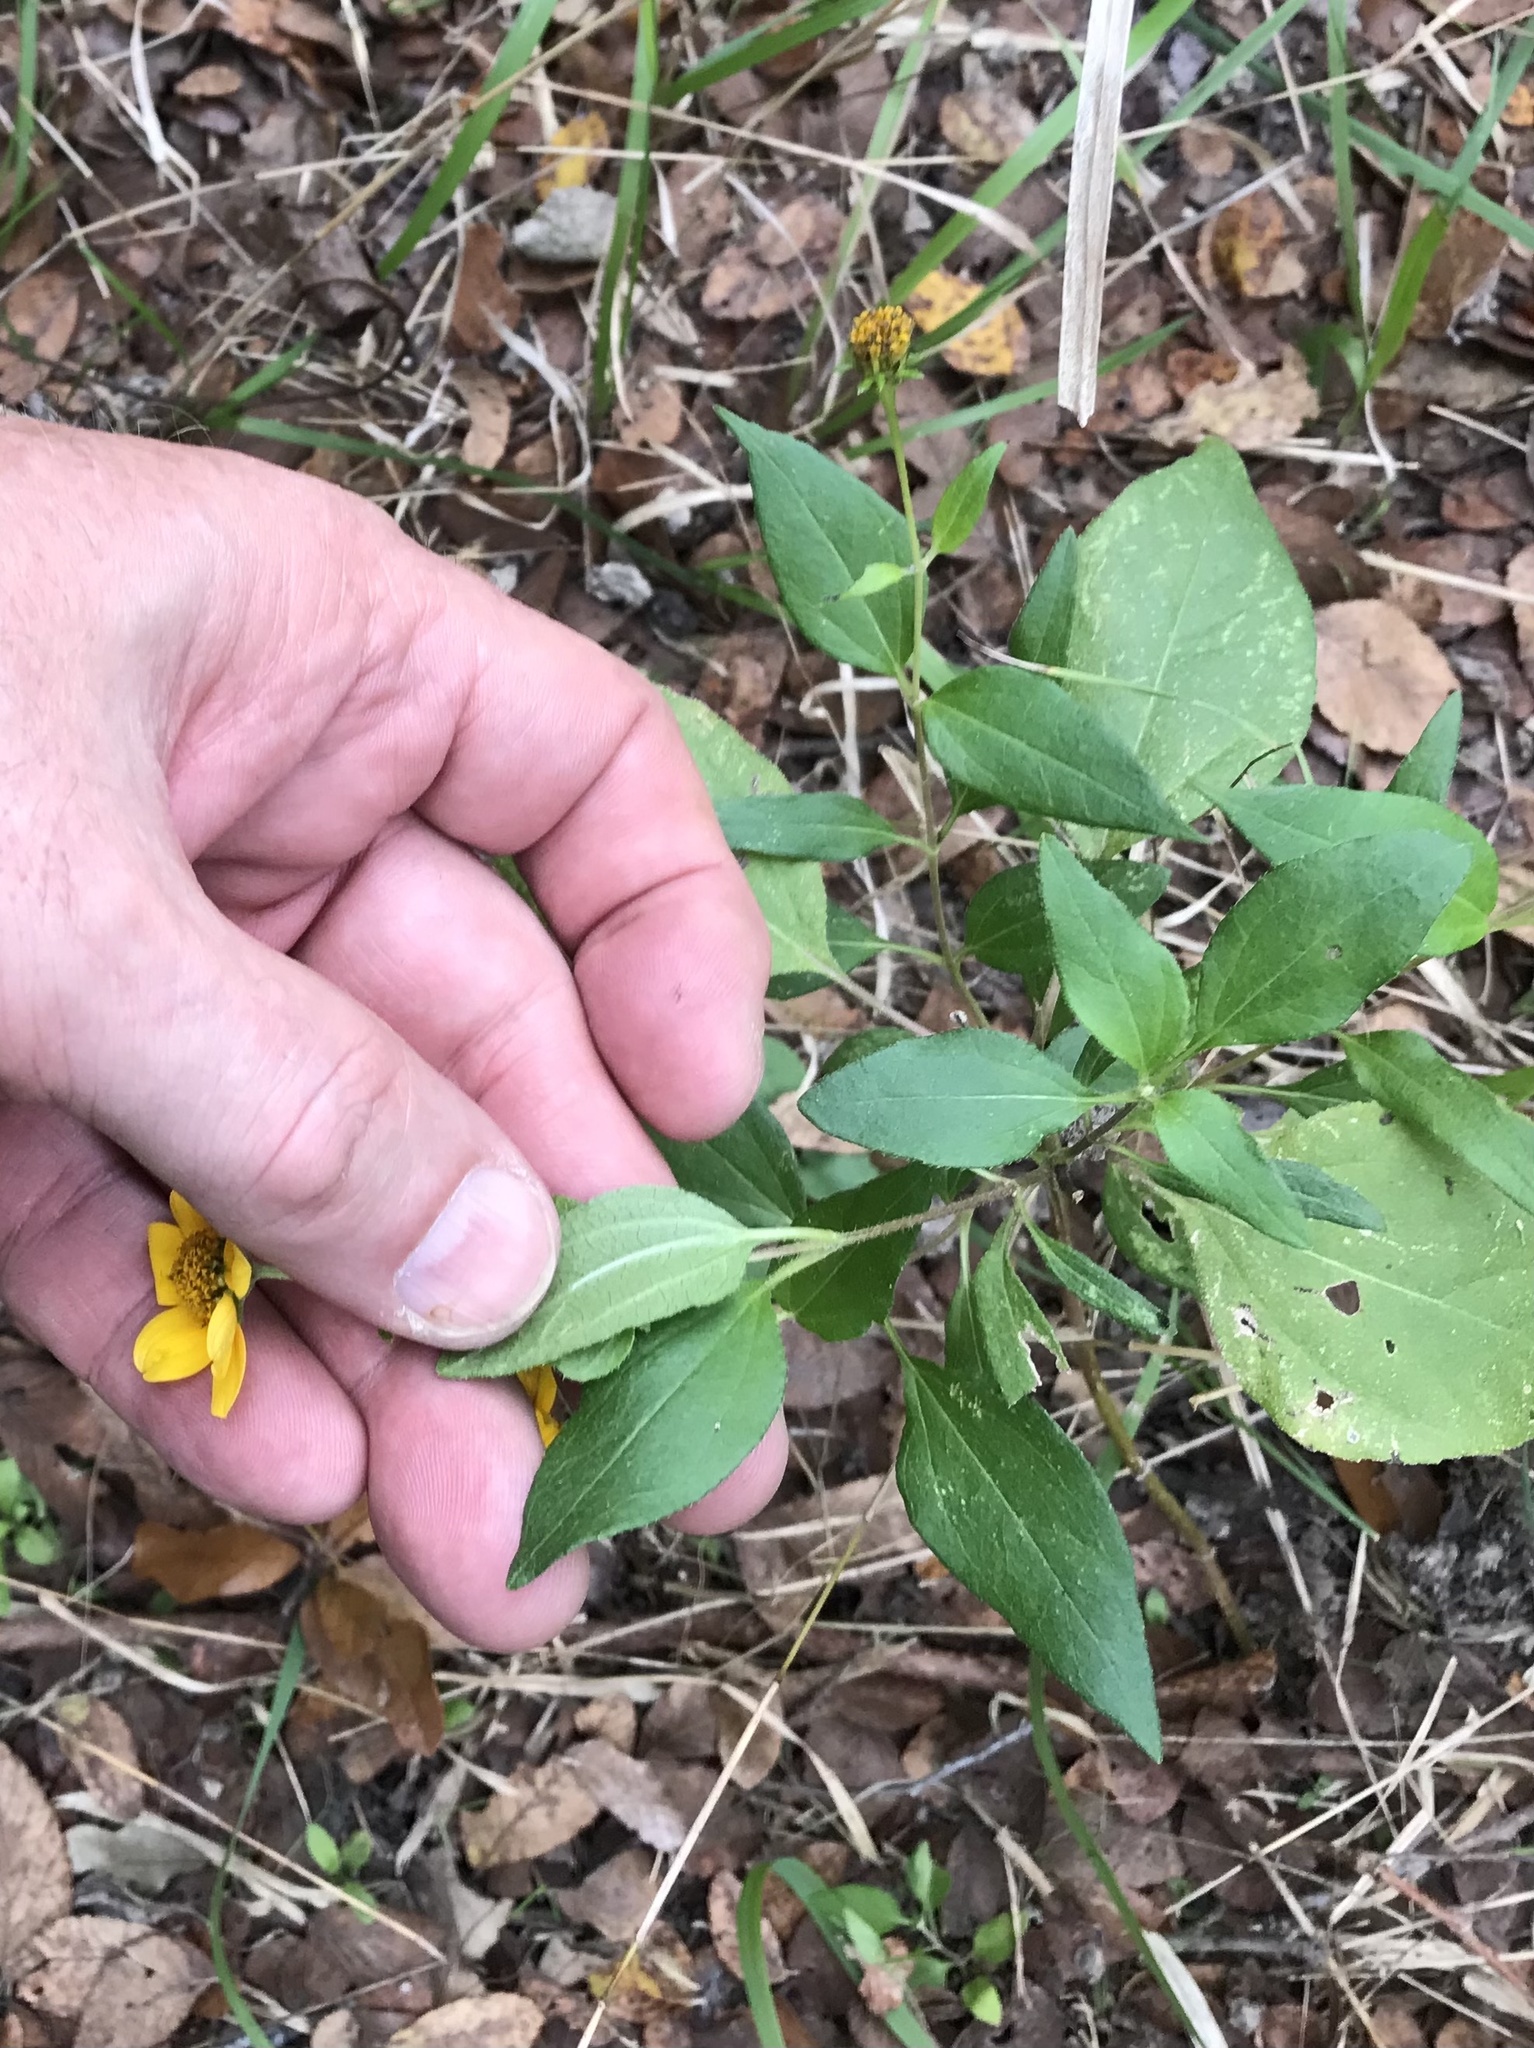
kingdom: Plantae
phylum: Tracheophyta
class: Magnoliopsida
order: Asterales
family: Asteraceae
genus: Viguiera
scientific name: Viguiera dentata
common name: Toothleaf
